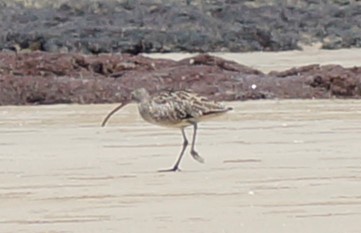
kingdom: Animalia
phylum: Chordata
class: Aves
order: Charadriiformes
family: Scolopacidae
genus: Numenius
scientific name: Numenius phaeopus
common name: Whimbrel
